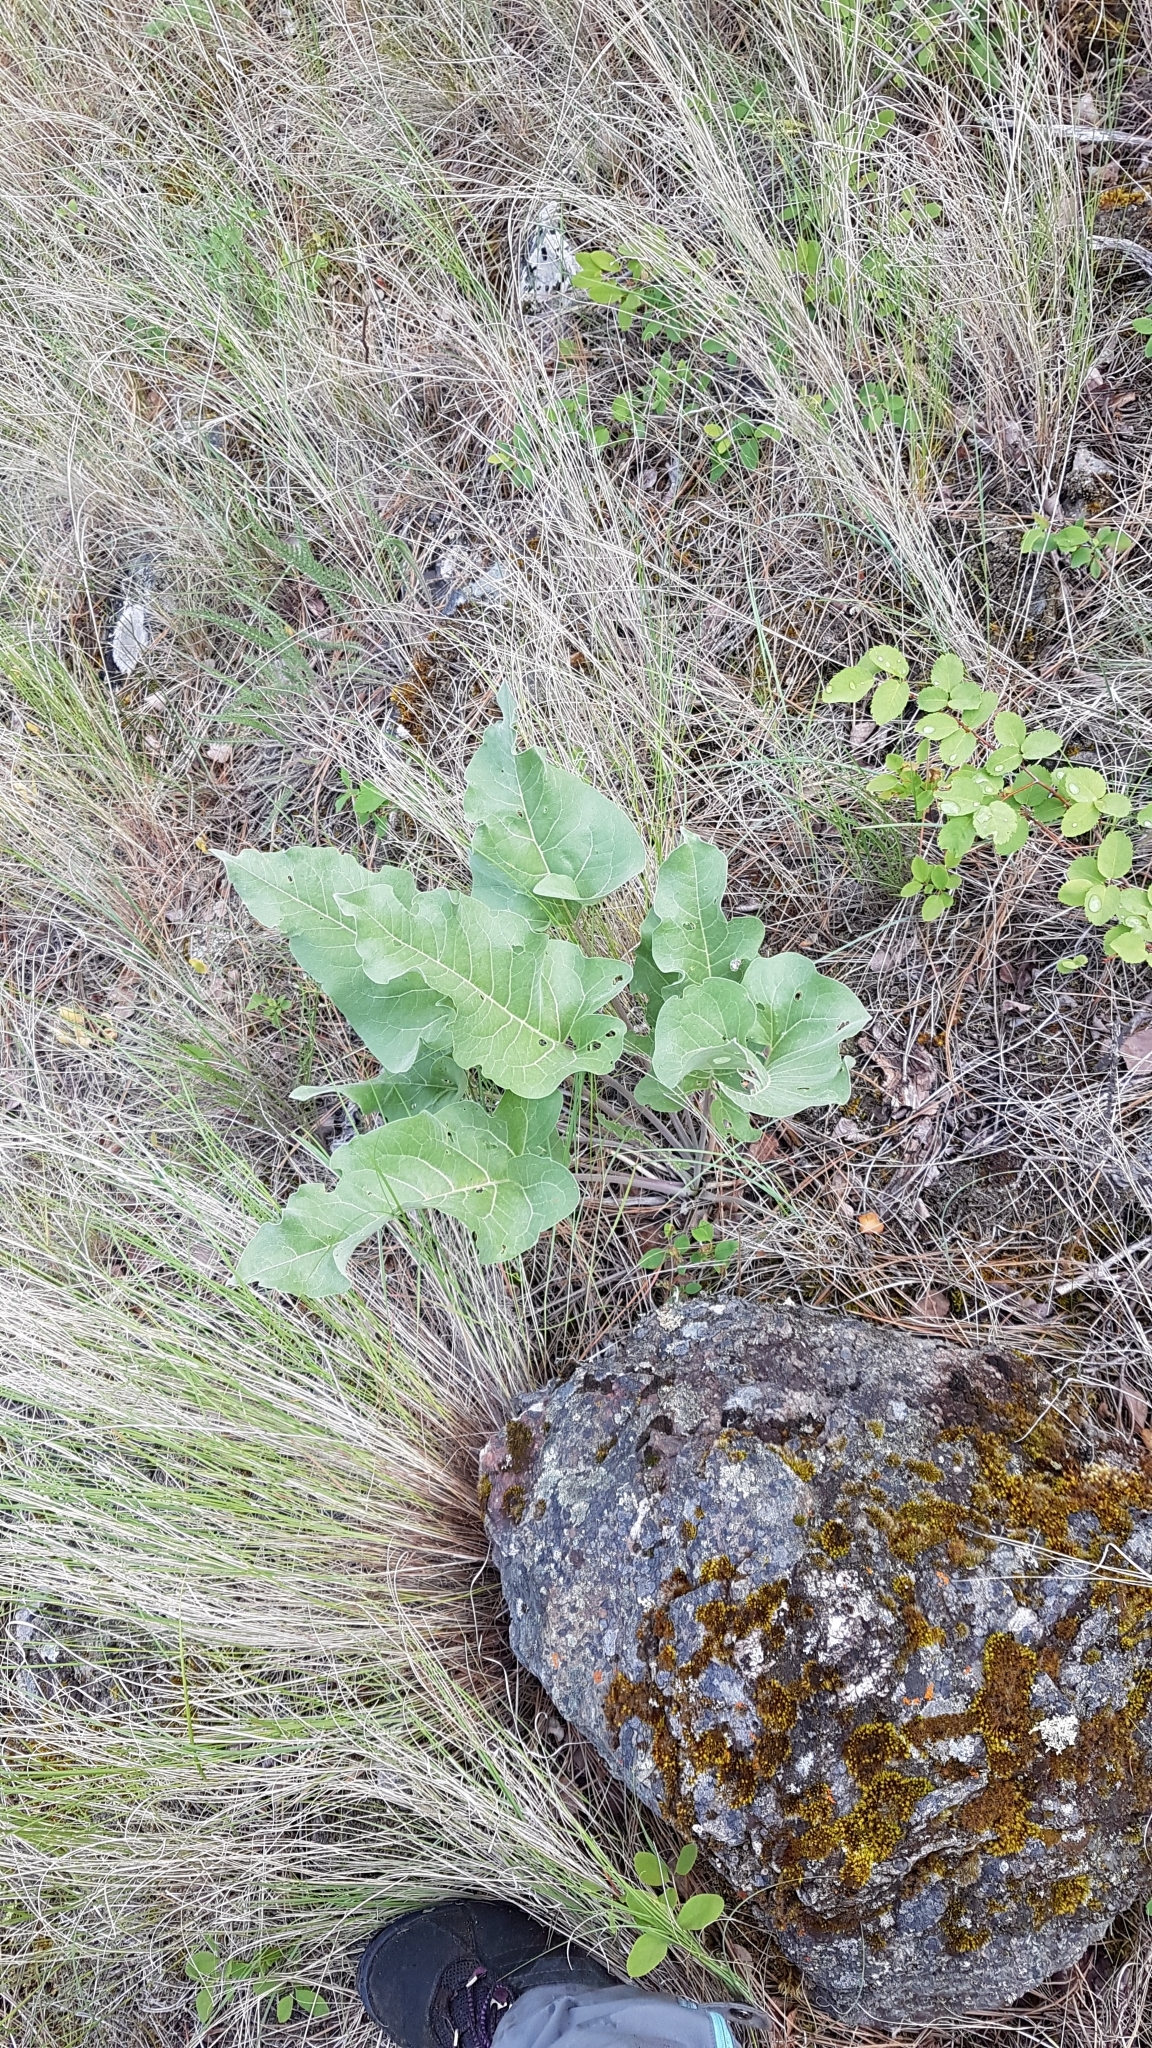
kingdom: Plantae
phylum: Tracheophyta
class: Magnoliopsida
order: Asterales
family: Asteraceae
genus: Wyethia
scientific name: Wyethia sagittata
